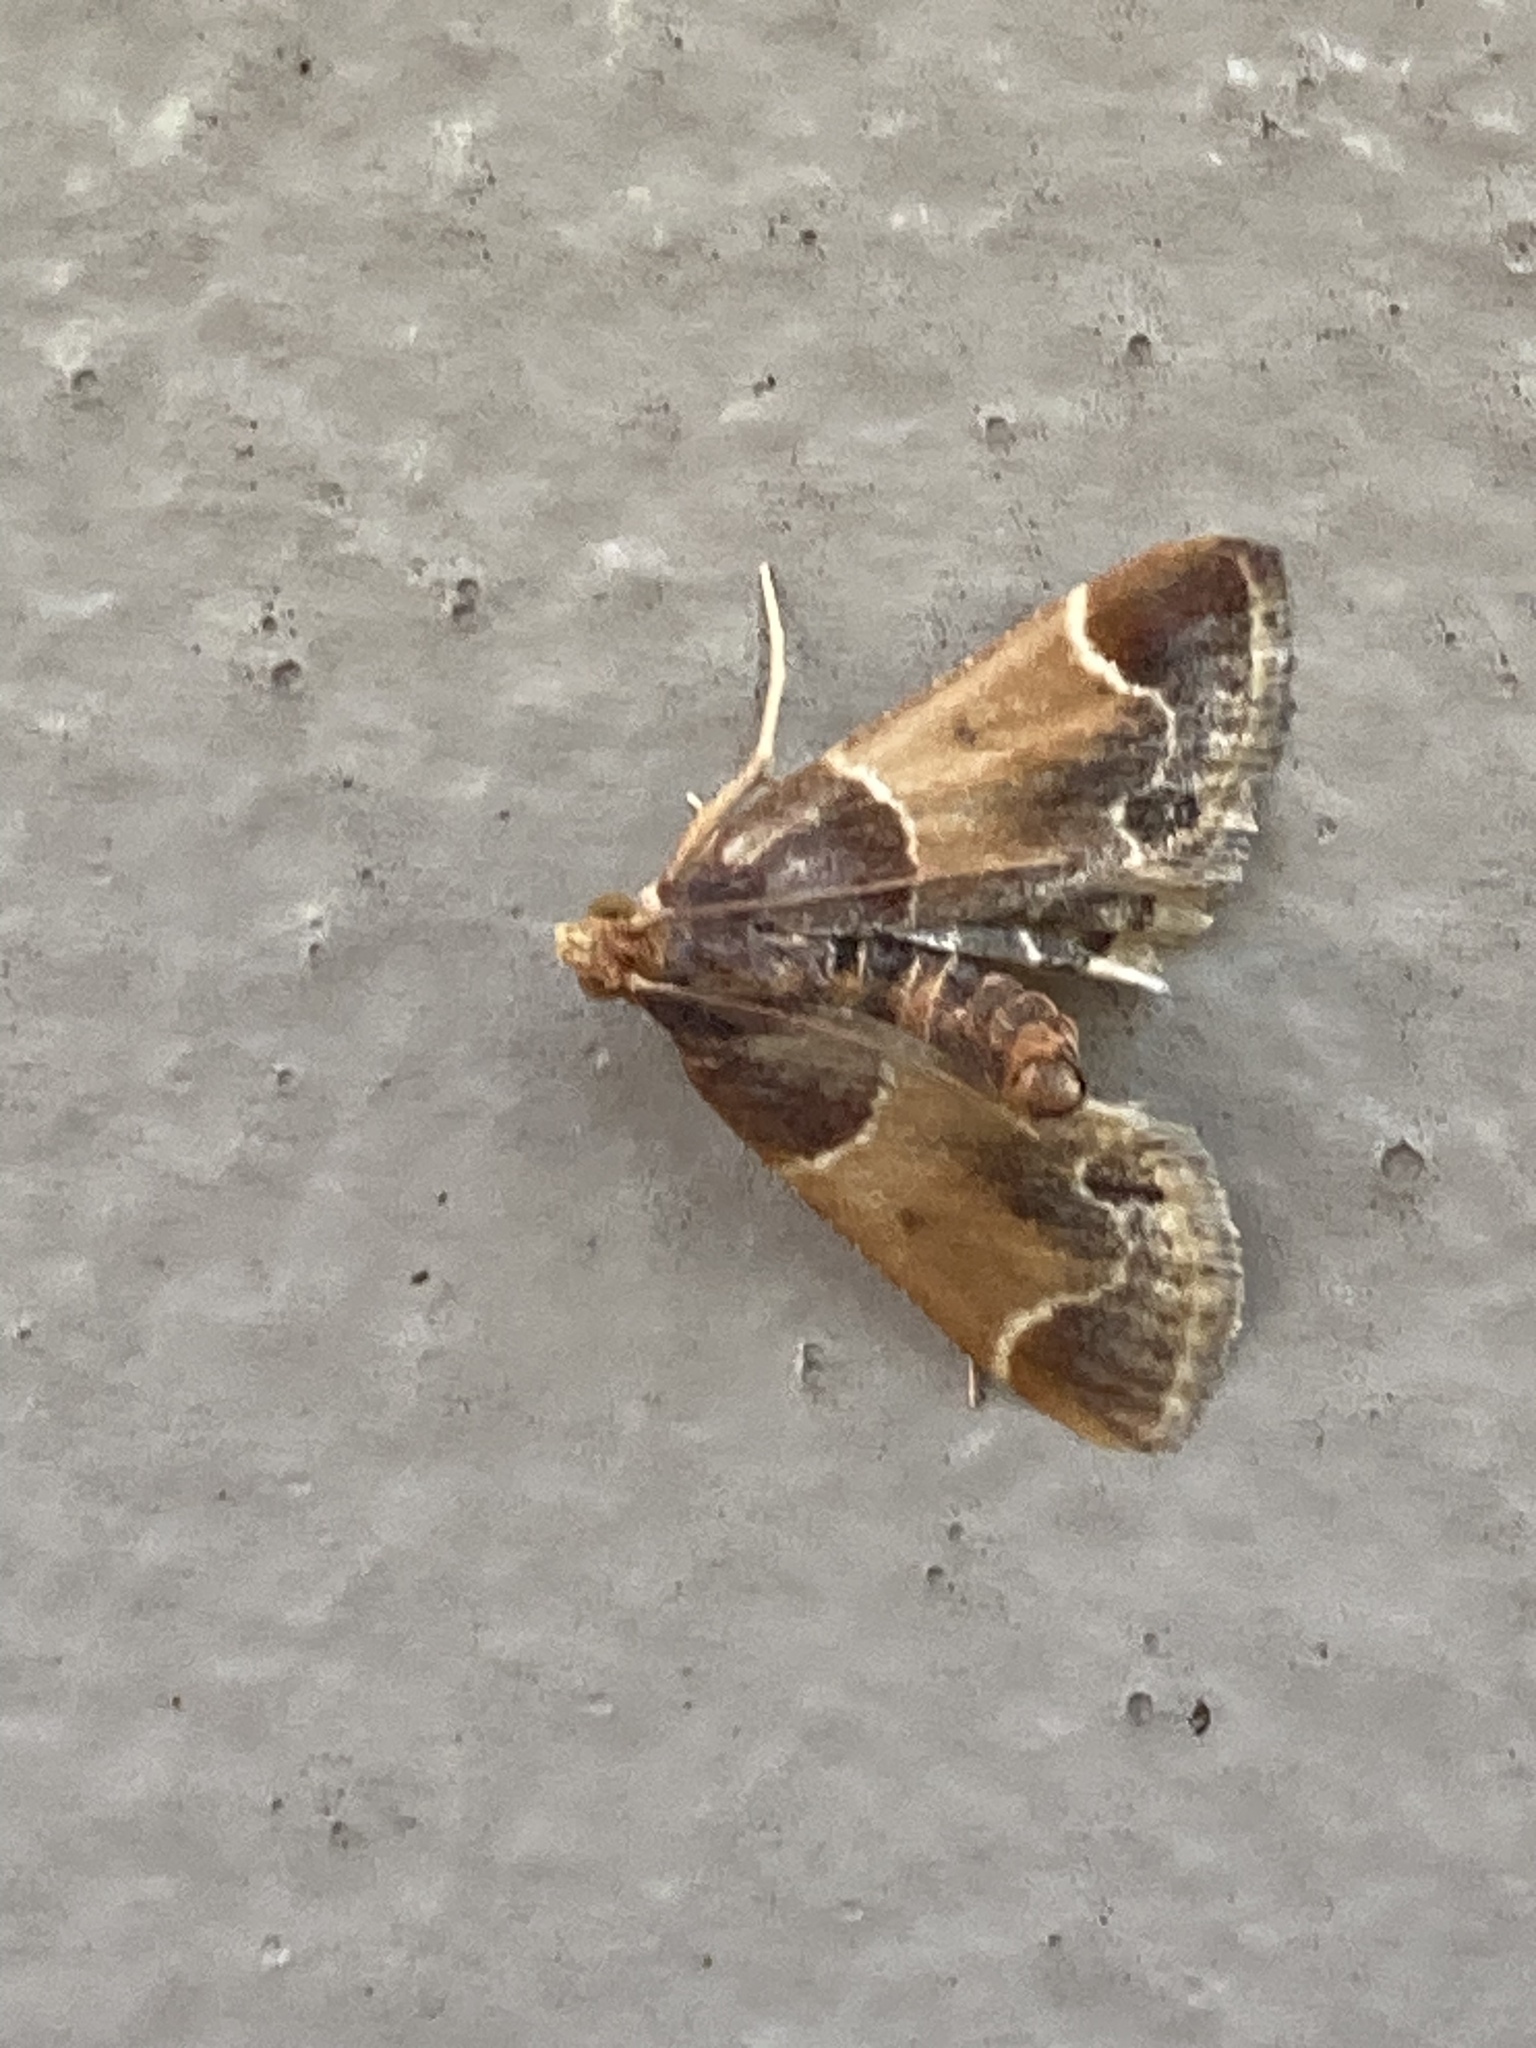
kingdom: Animalia
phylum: Arthropoda
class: Insecta
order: Lepidoptera
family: Pyralidae
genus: Pyralis
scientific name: Pyralis farinalis
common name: Meal moth
